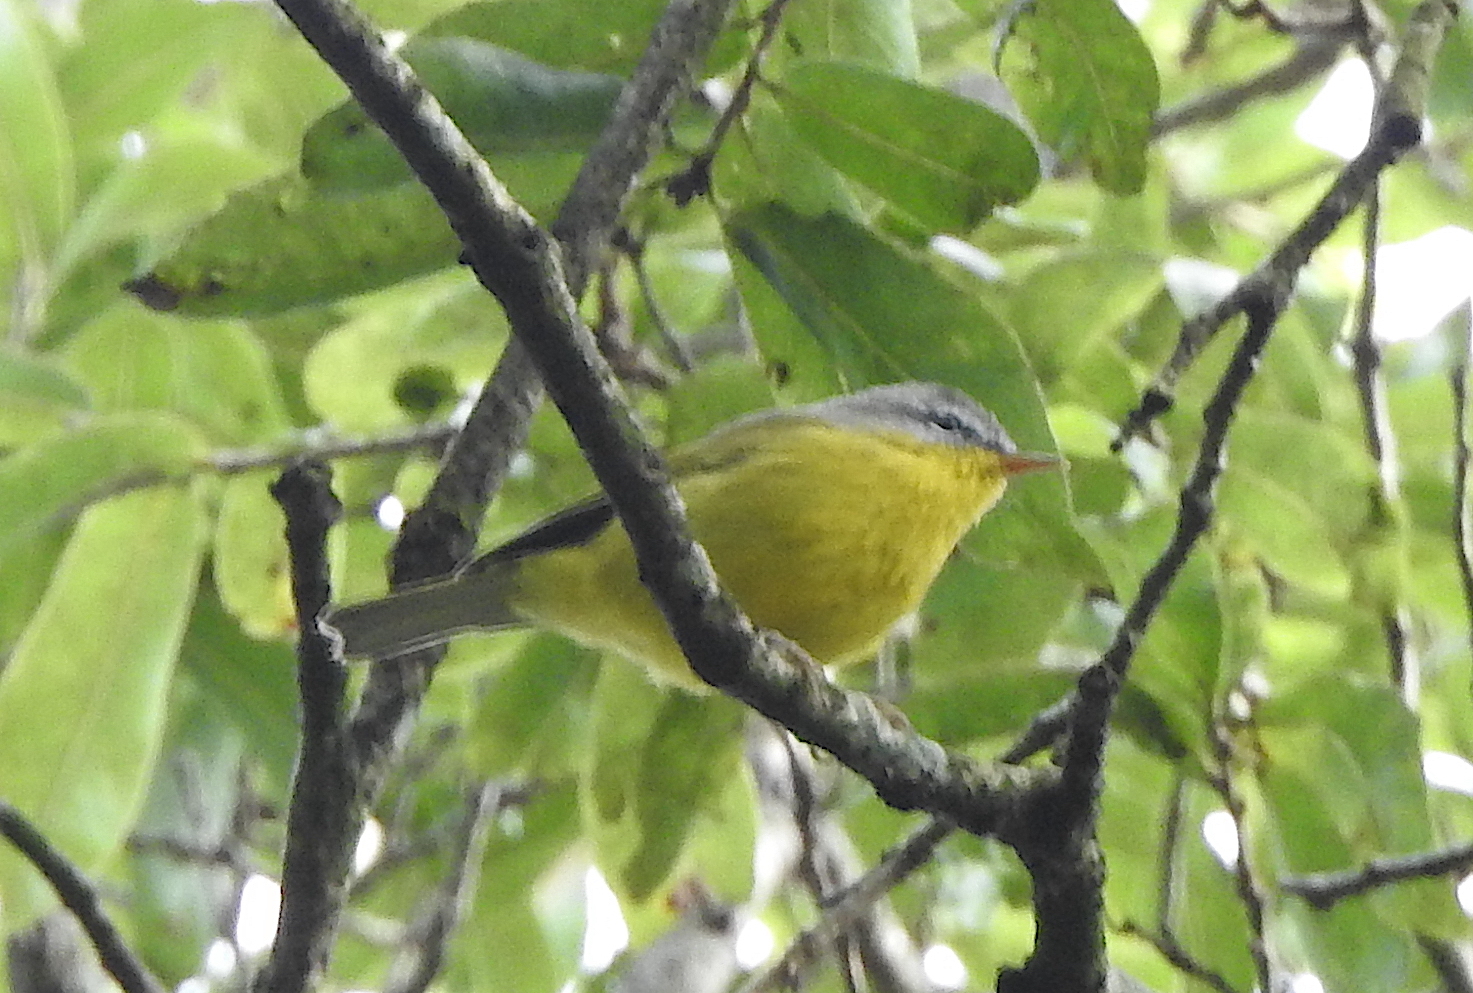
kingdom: Animalia
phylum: Chordata
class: Aves
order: Passeriformes
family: Phylloscopidae
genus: Phylloscopus
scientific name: Phylloscopus xanthoschistos
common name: Grey-hooded warbler
